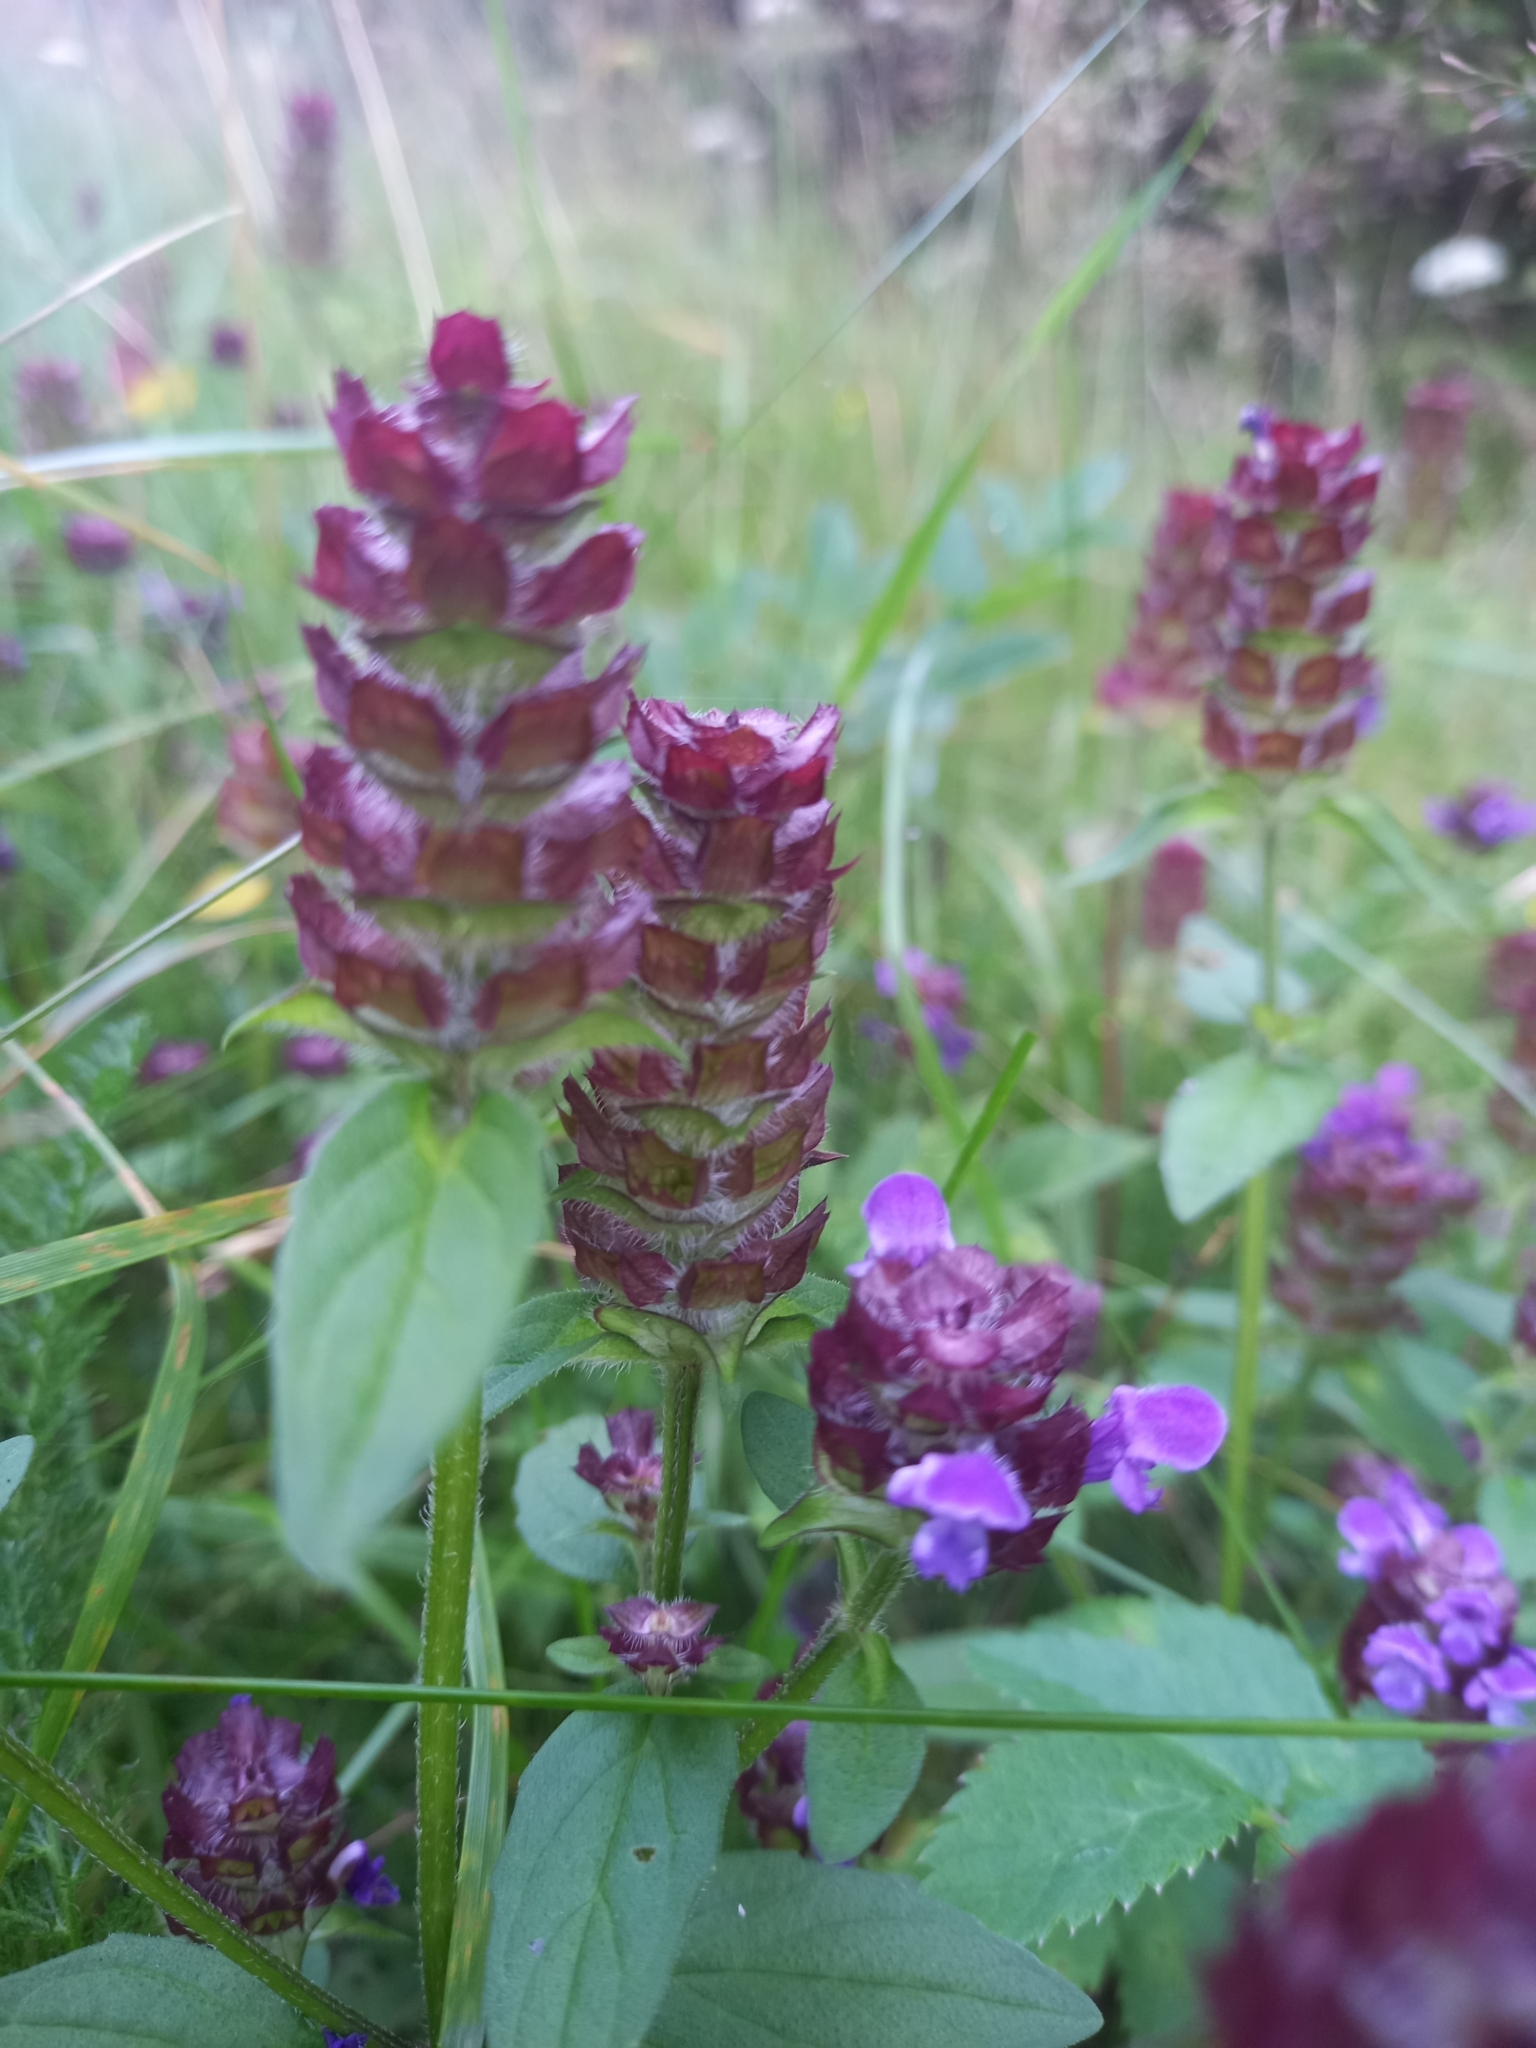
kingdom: Plantae
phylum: Tracheophyta
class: Magnoliopsida
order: Lamiales
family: Lamiaceae
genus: Prunella
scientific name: Prunella vulgaris
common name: Heal-all
